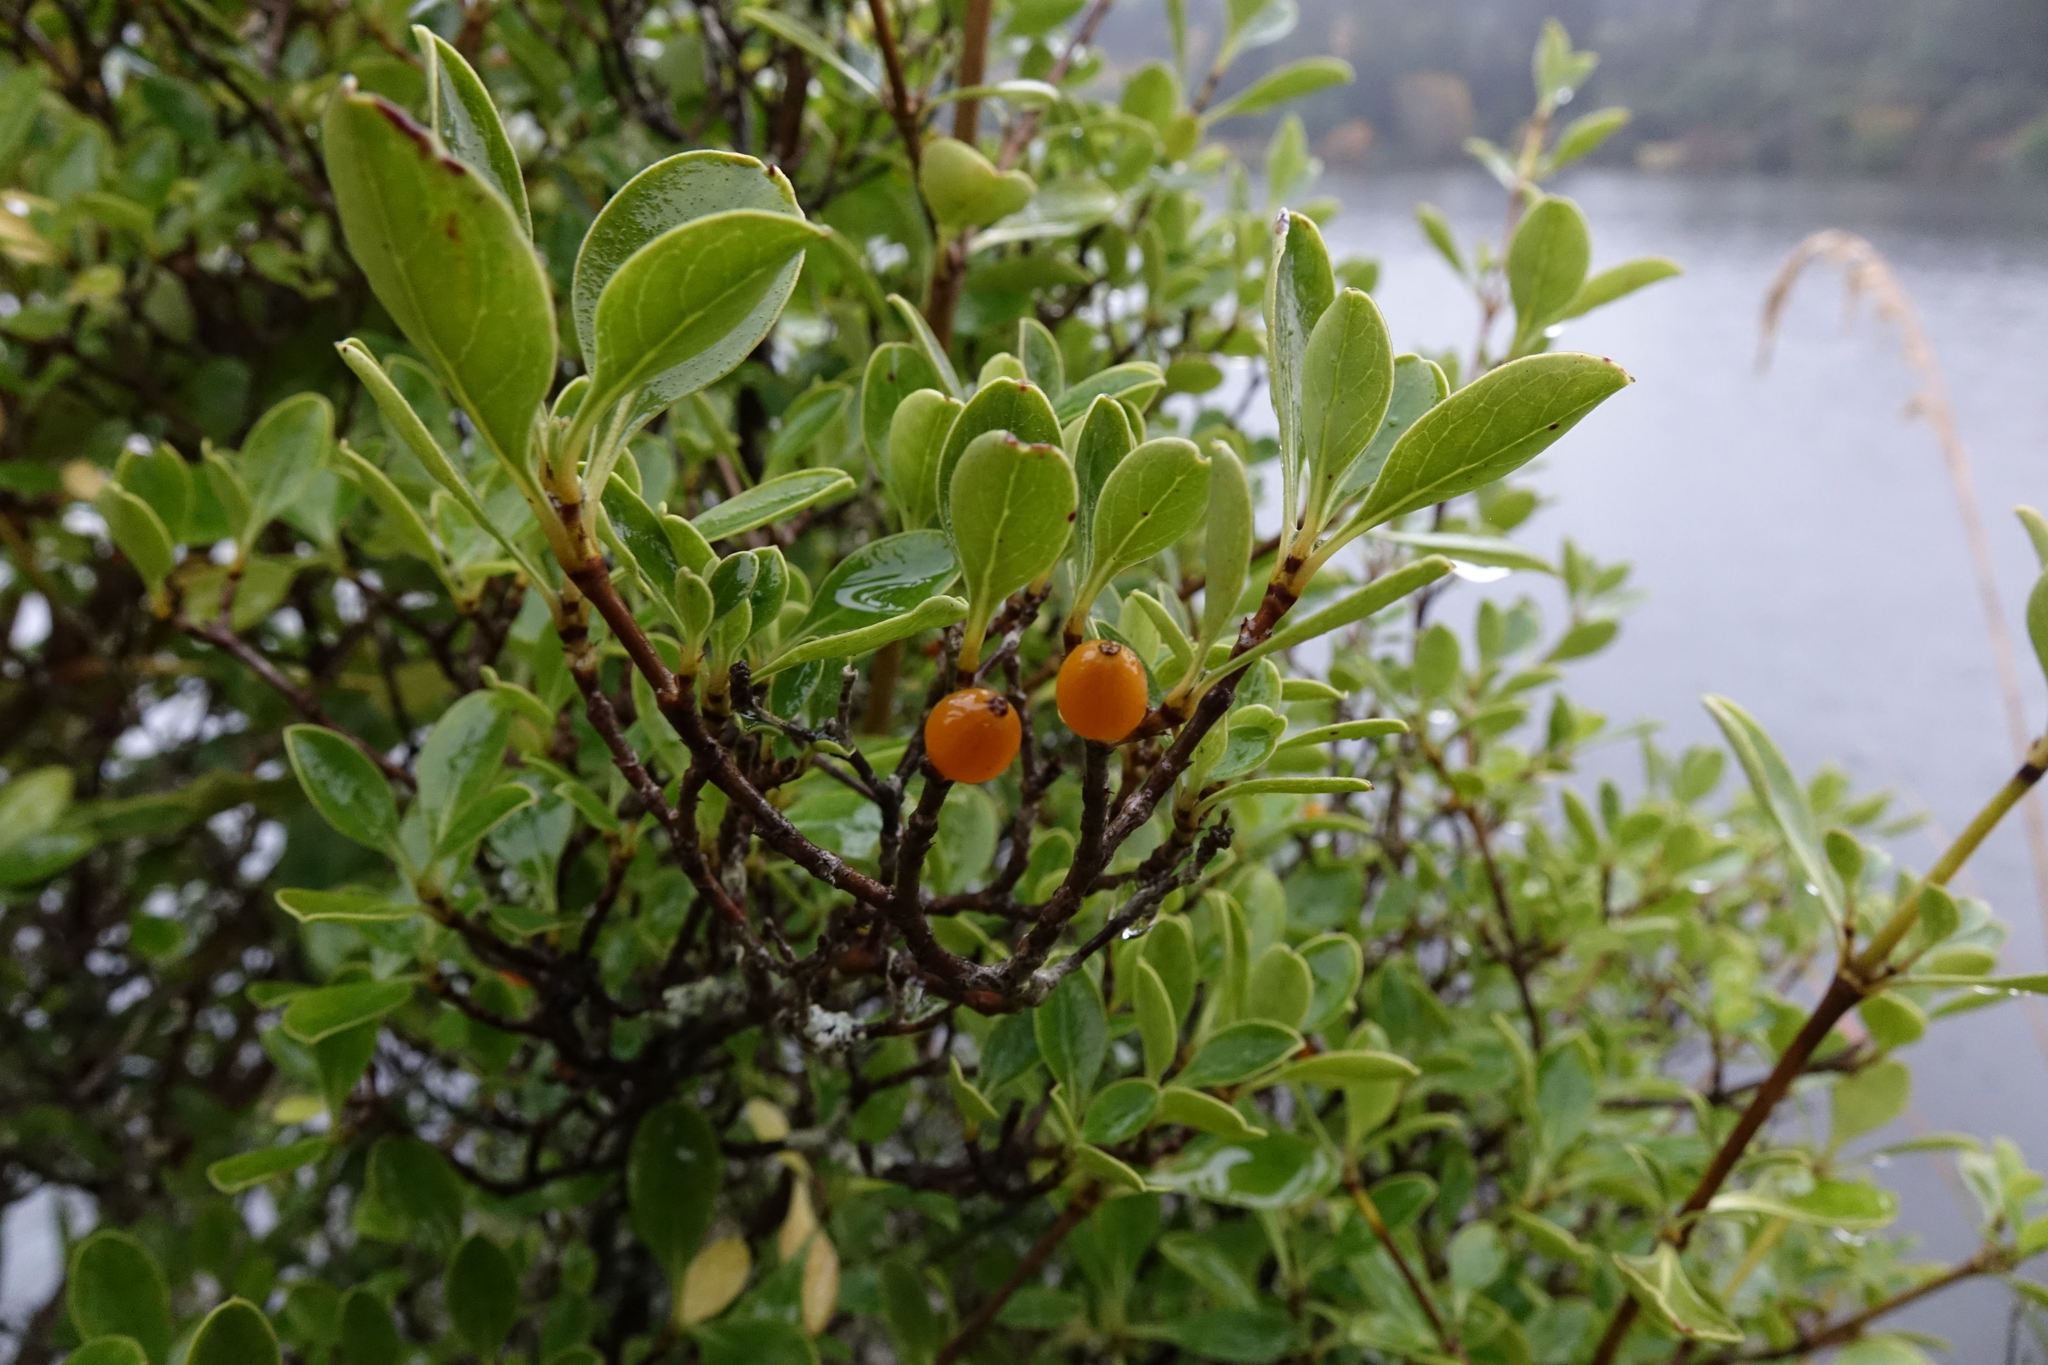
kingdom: Plantae
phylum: Tracheophyta
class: Magnoliopsida
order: Gentianales
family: Rubiaceae
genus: Coprosma
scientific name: Coprosma foetidissima
